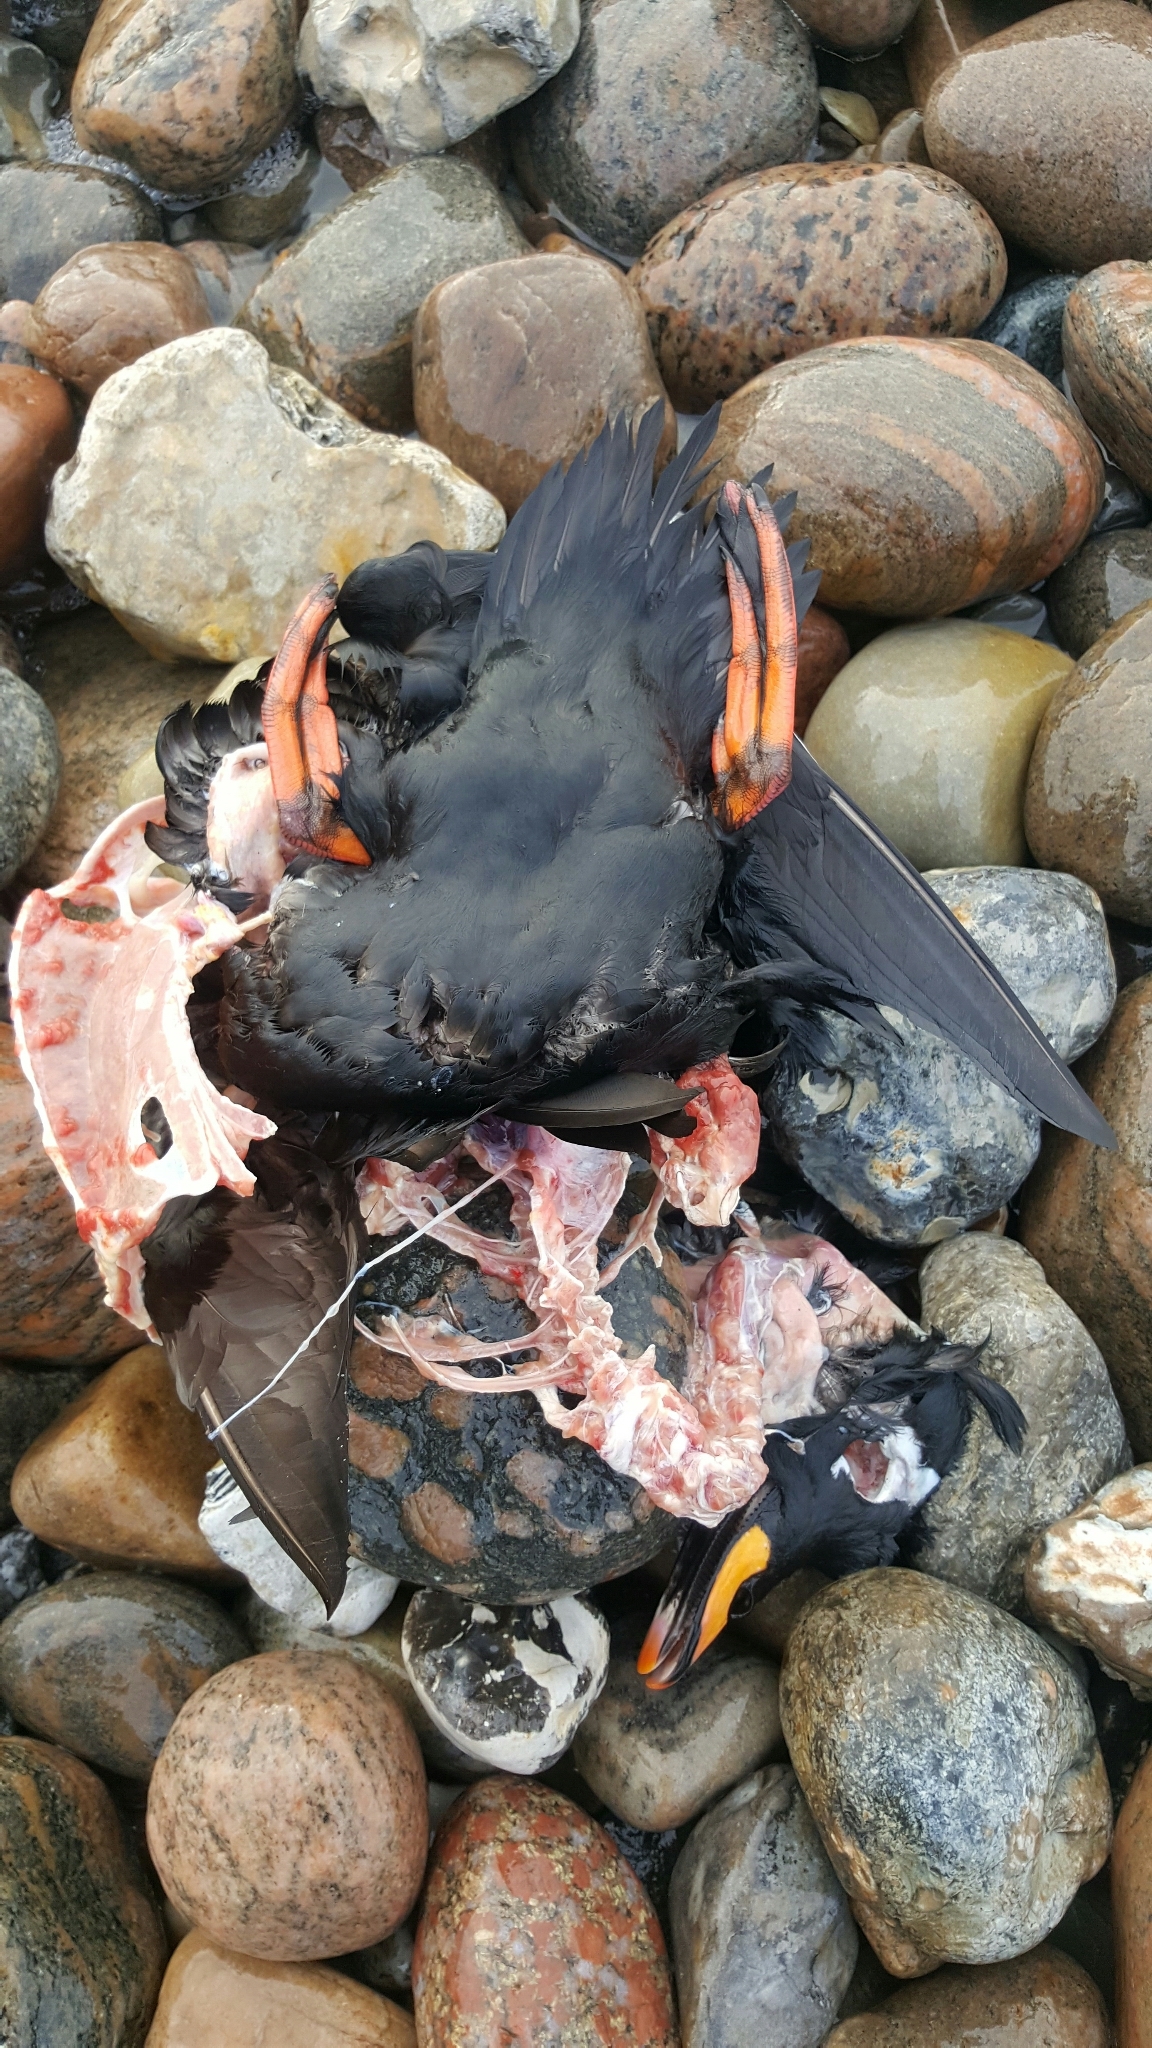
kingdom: Animalia
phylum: Chordata
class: Aves
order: Anseriformes
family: Anatidae
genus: Melanitta
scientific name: Melanitta fusca
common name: Velvet scoter
